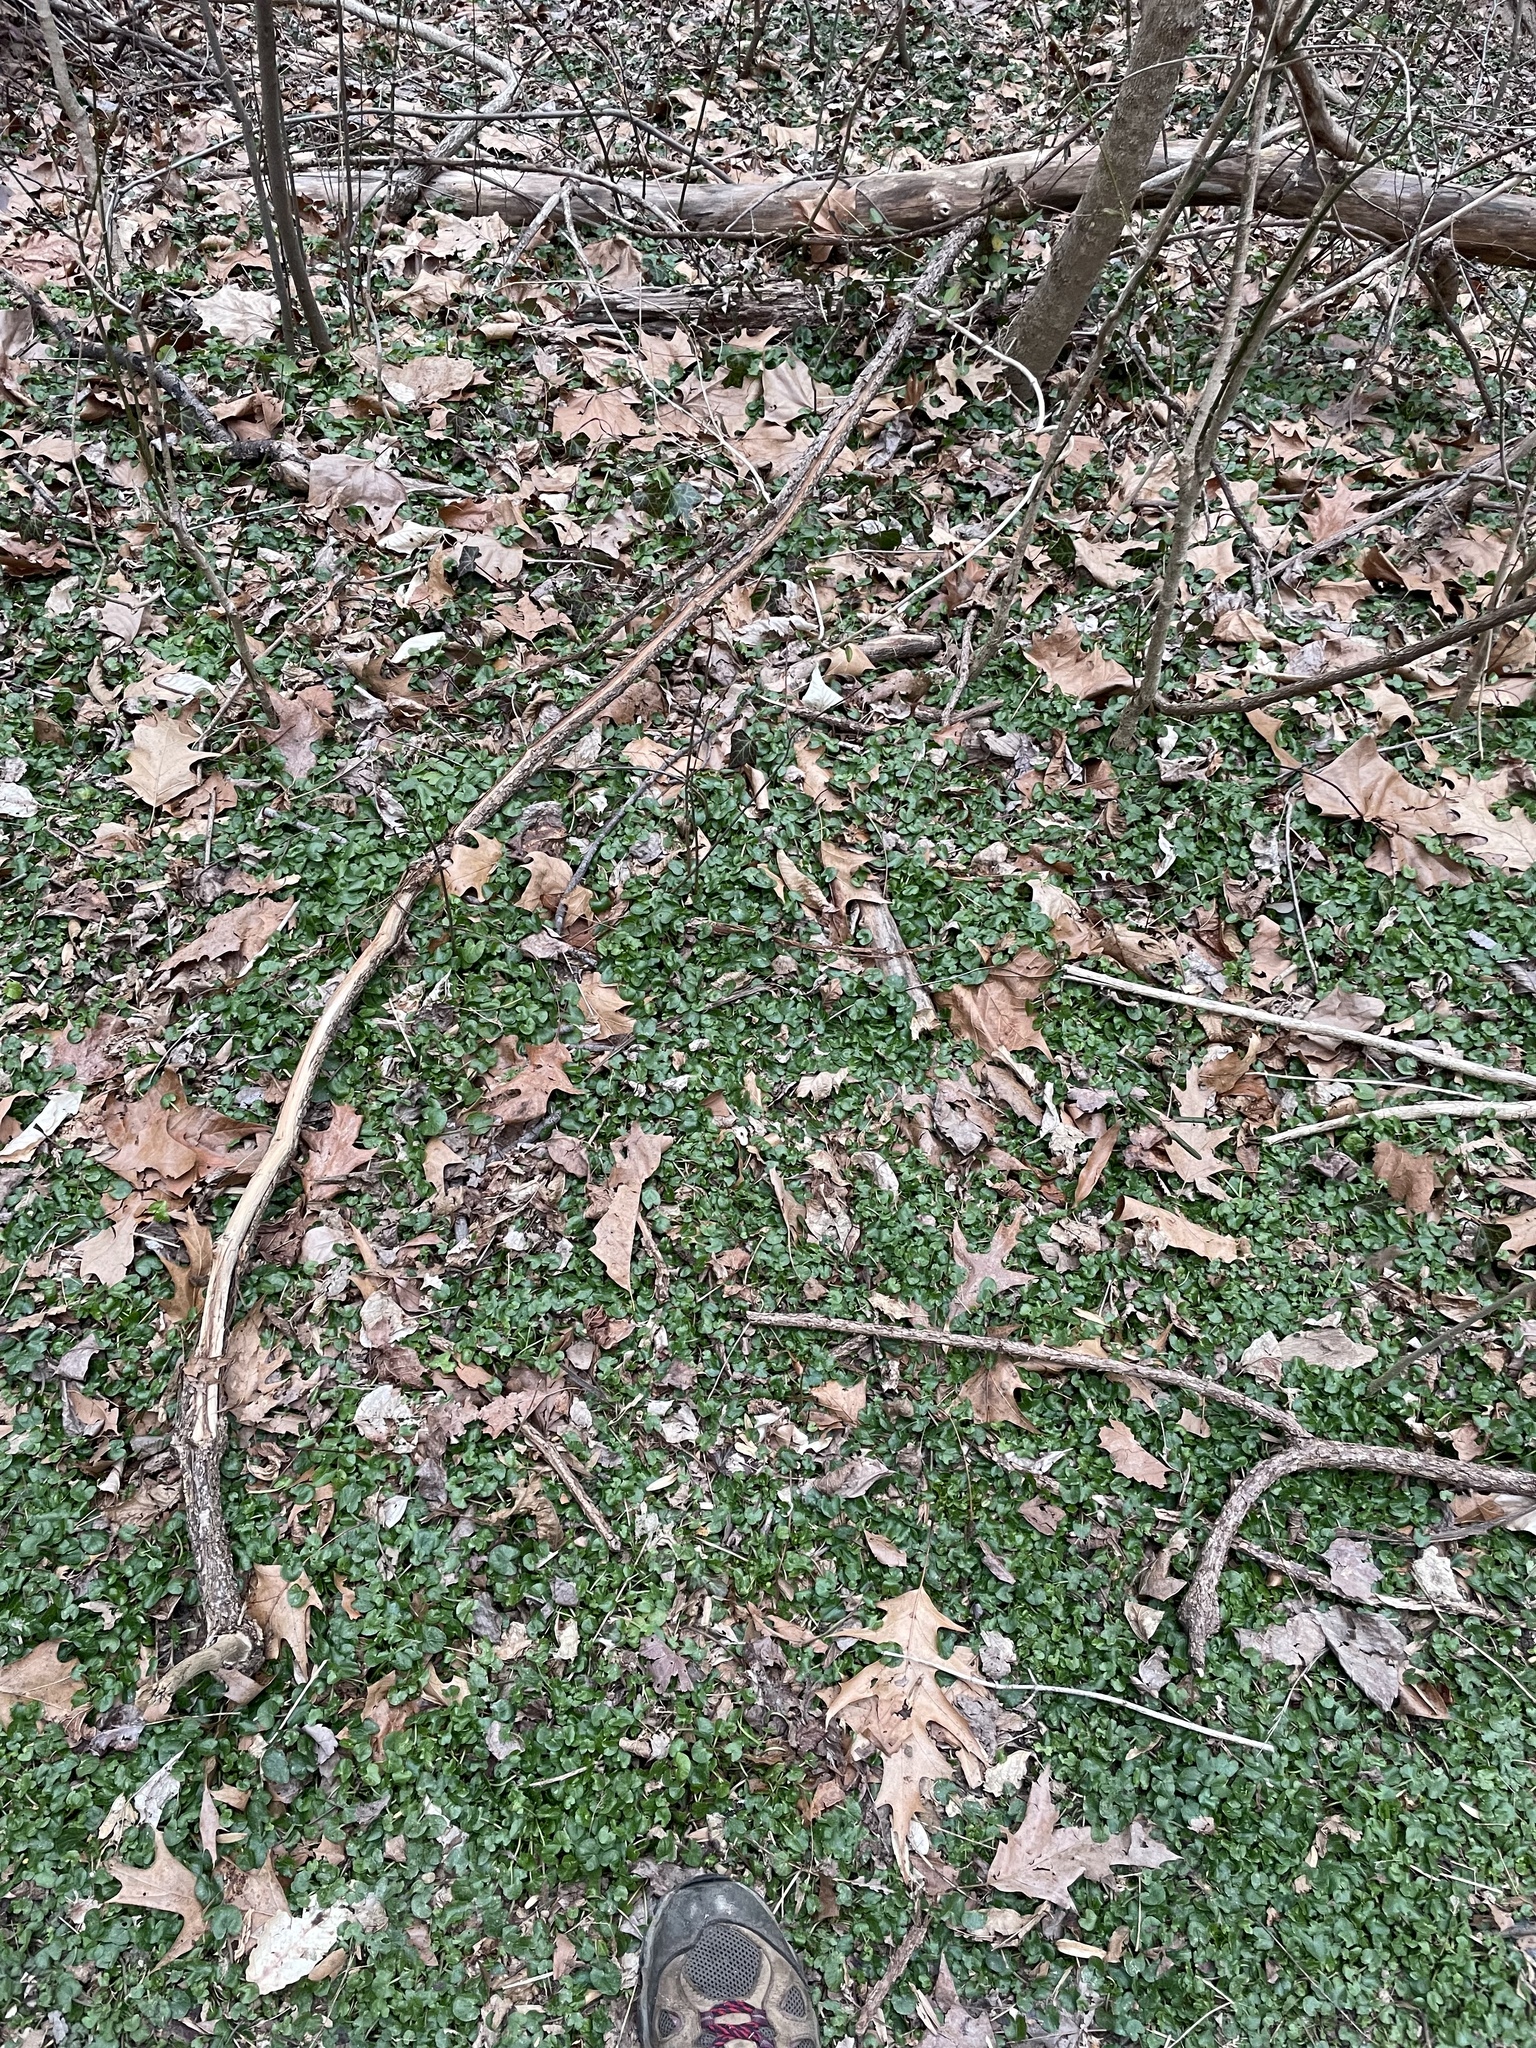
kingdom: Plantae
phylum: Tracheophyta
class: Magnoliopsida
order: Ranunculales
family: Ranunculaceae
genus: Ficaria
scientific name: Ficaria verna
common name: Lesser celandine
